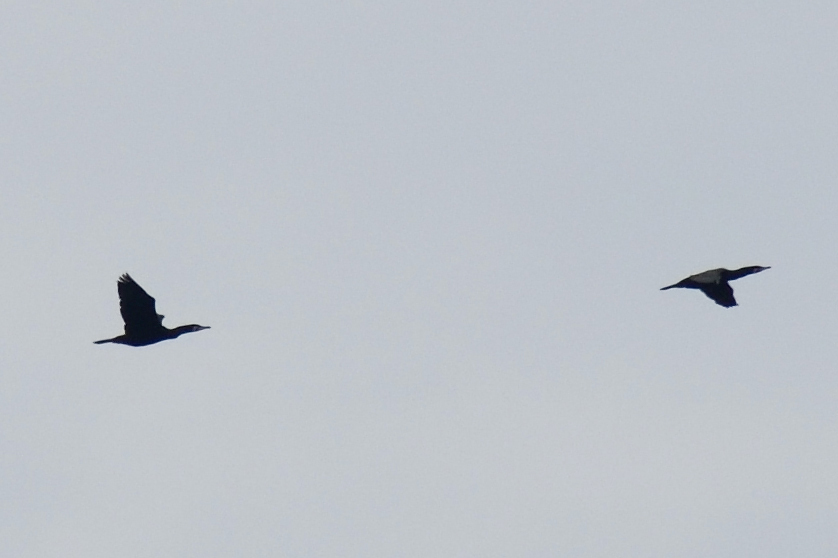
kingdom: Animalia
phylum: Chordata
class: Aves
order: Suliformes
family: Phalacrocoracidae
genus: Phalacrocorax
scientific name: Phalacrocorax carbo
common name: Great cormorant
